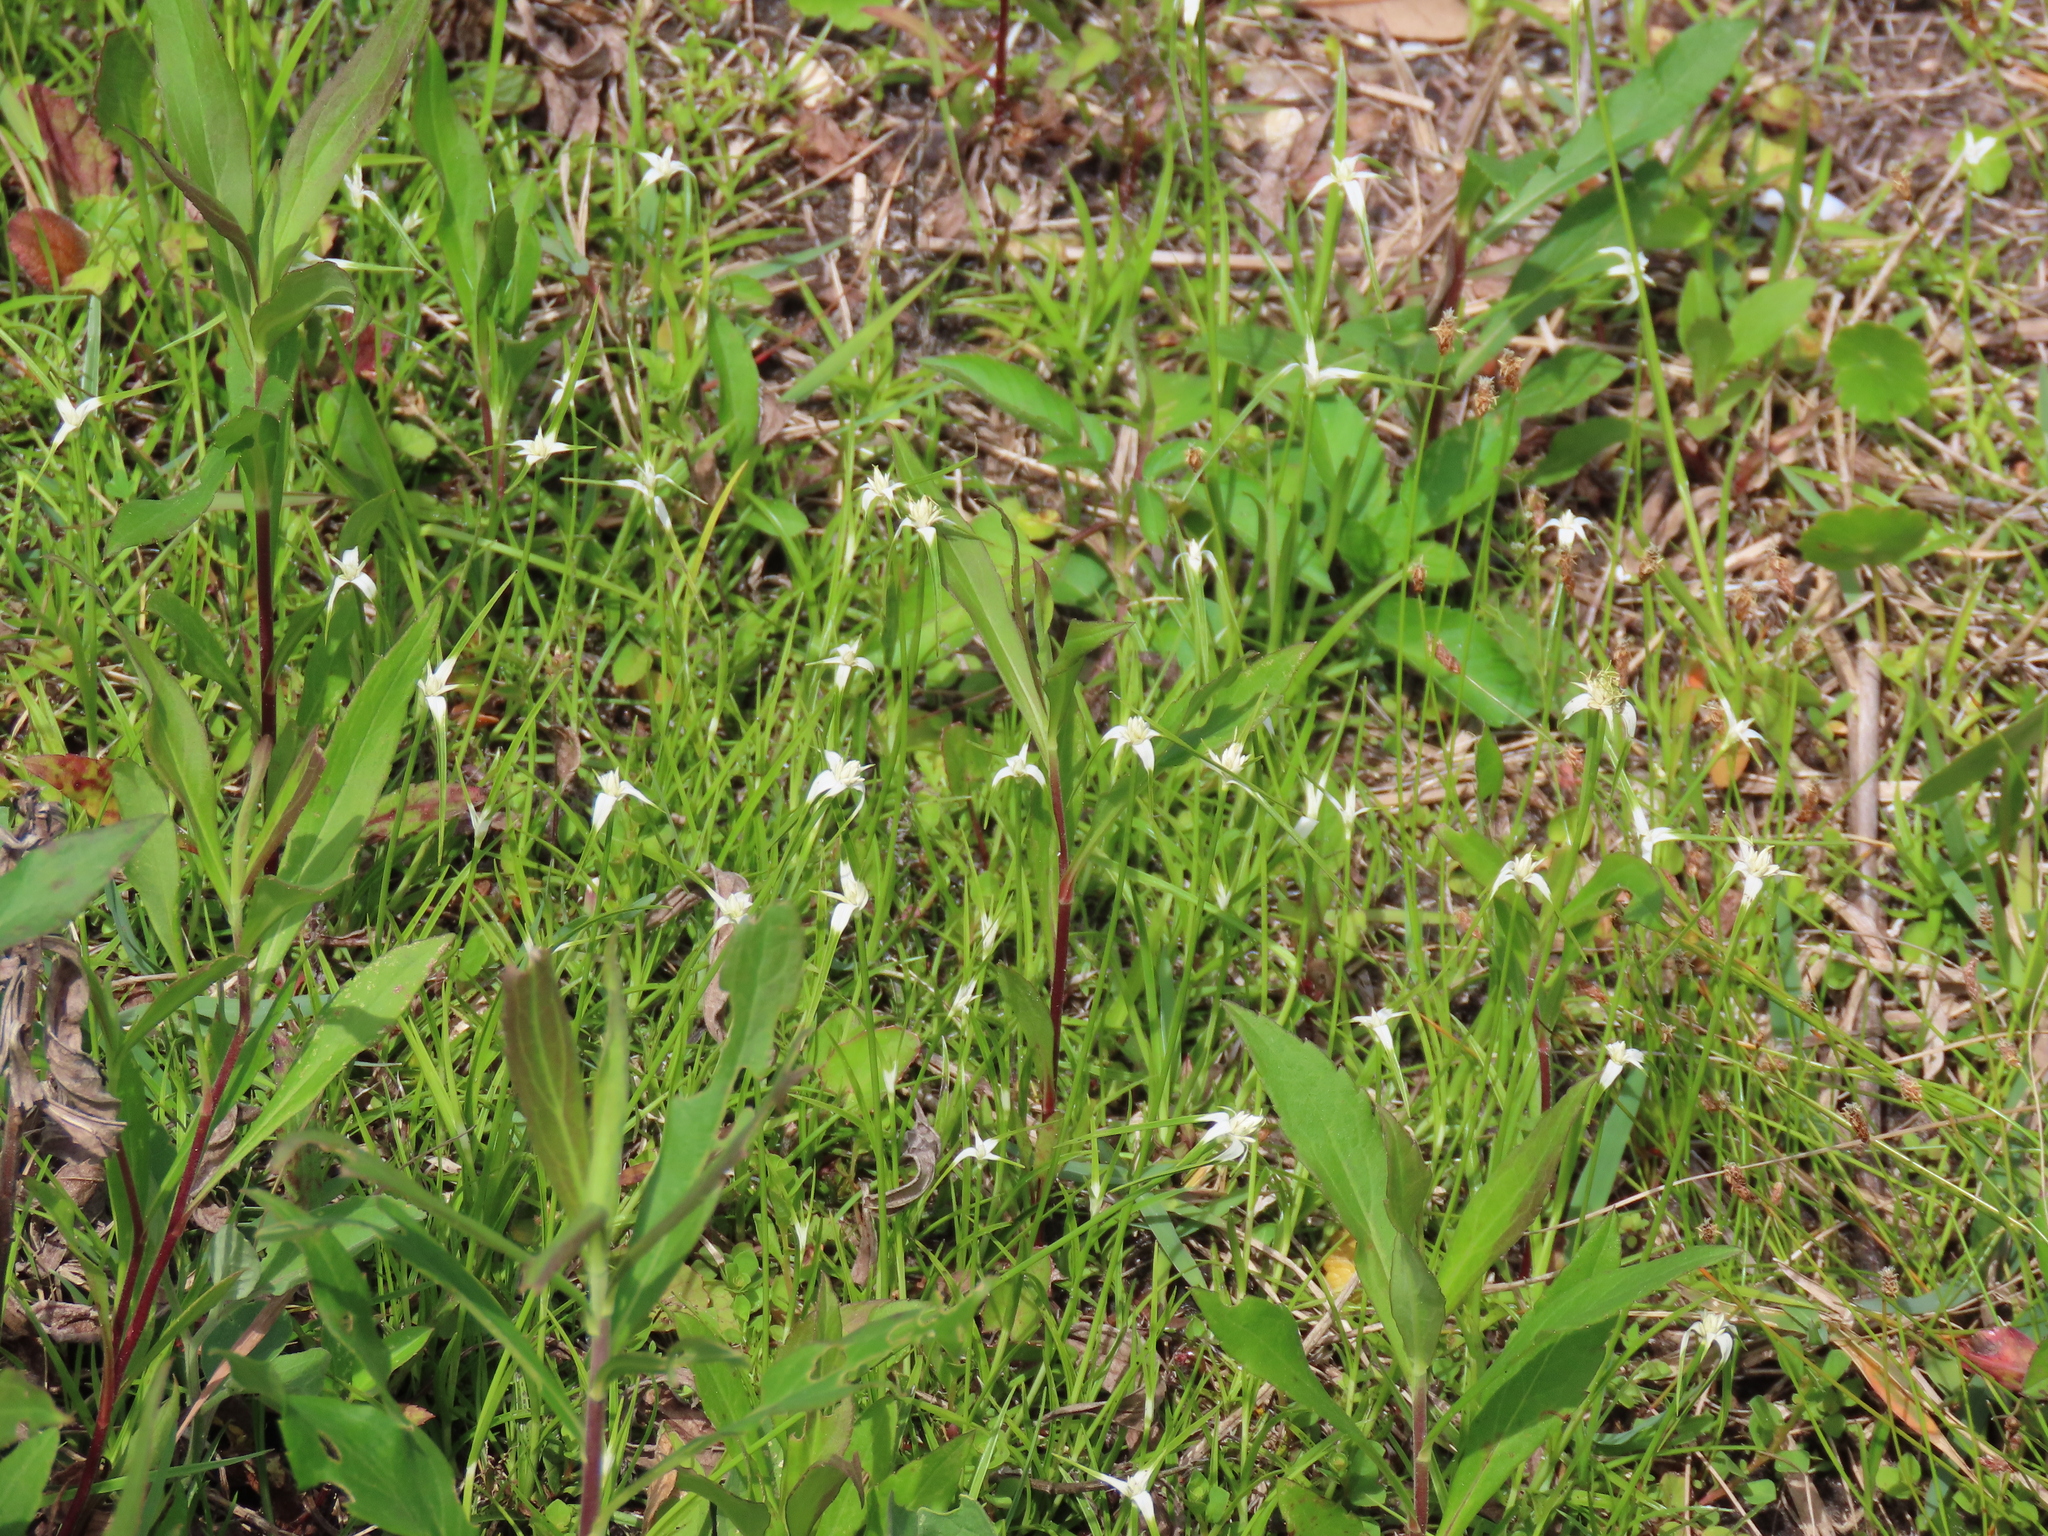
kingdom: Plantae
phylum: Tracheophyta
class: Liliopsida
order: Poales
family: Cyperaceae
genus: Rhynchospora
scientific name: Rhynchospora colorata
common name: Star sedge
